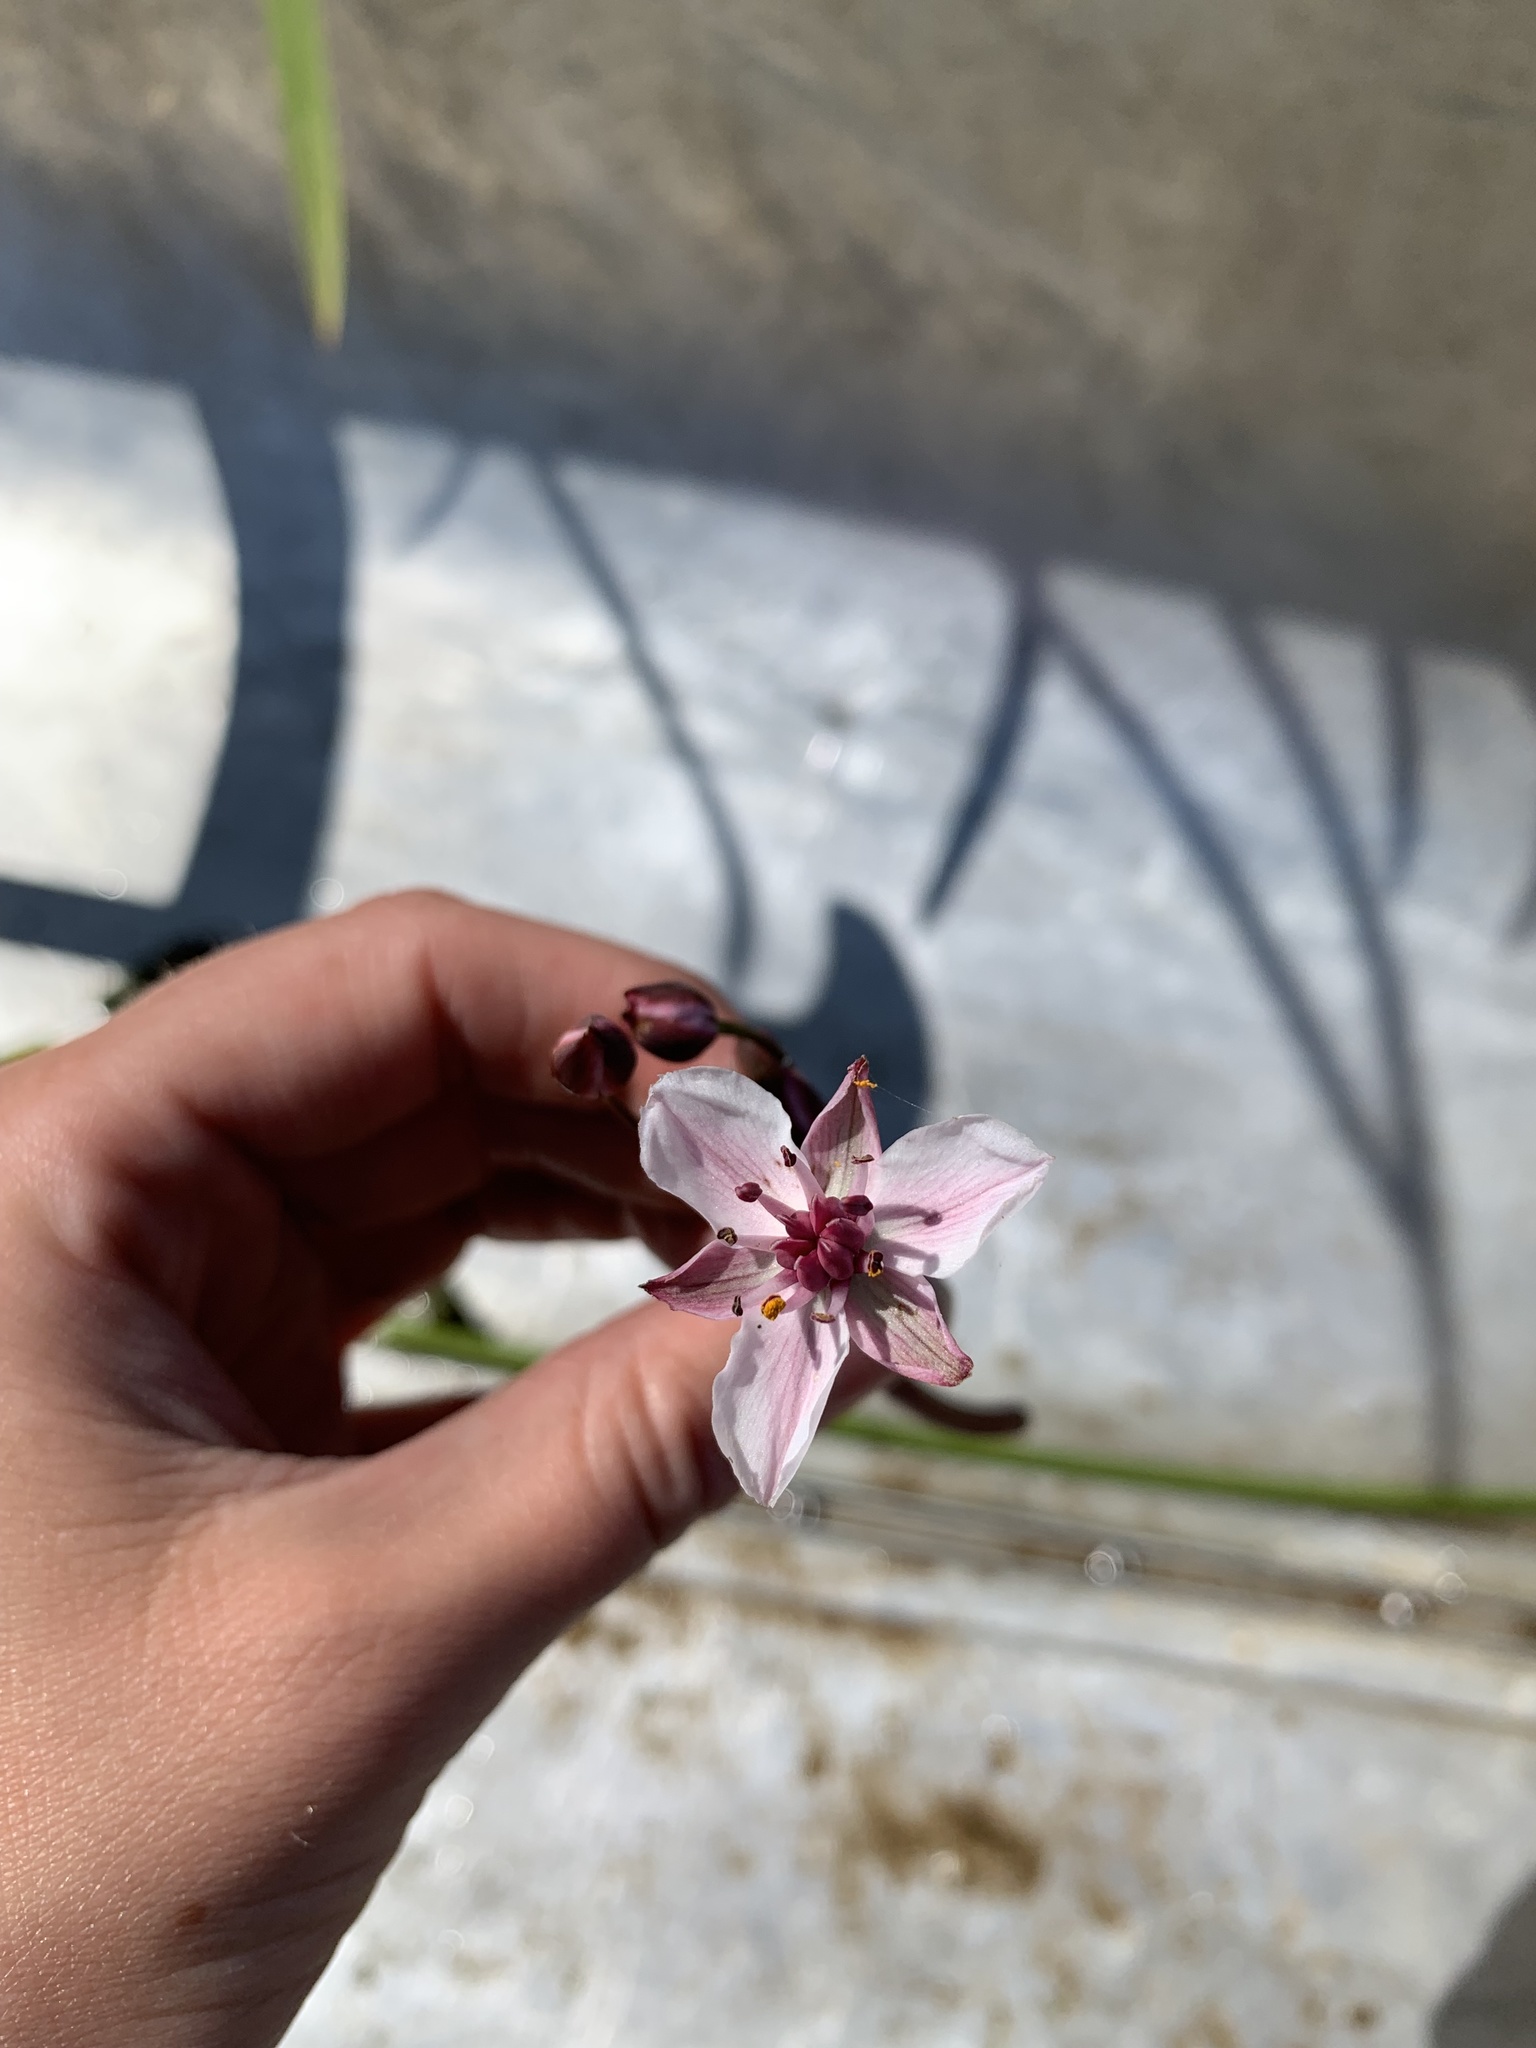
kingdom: Plantae
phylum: Tracheophyta
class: Liliopsida
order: Alismatales
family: Butomaceae
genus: Butomus
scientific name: Butomus umbellatus
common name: Flowering-rush
